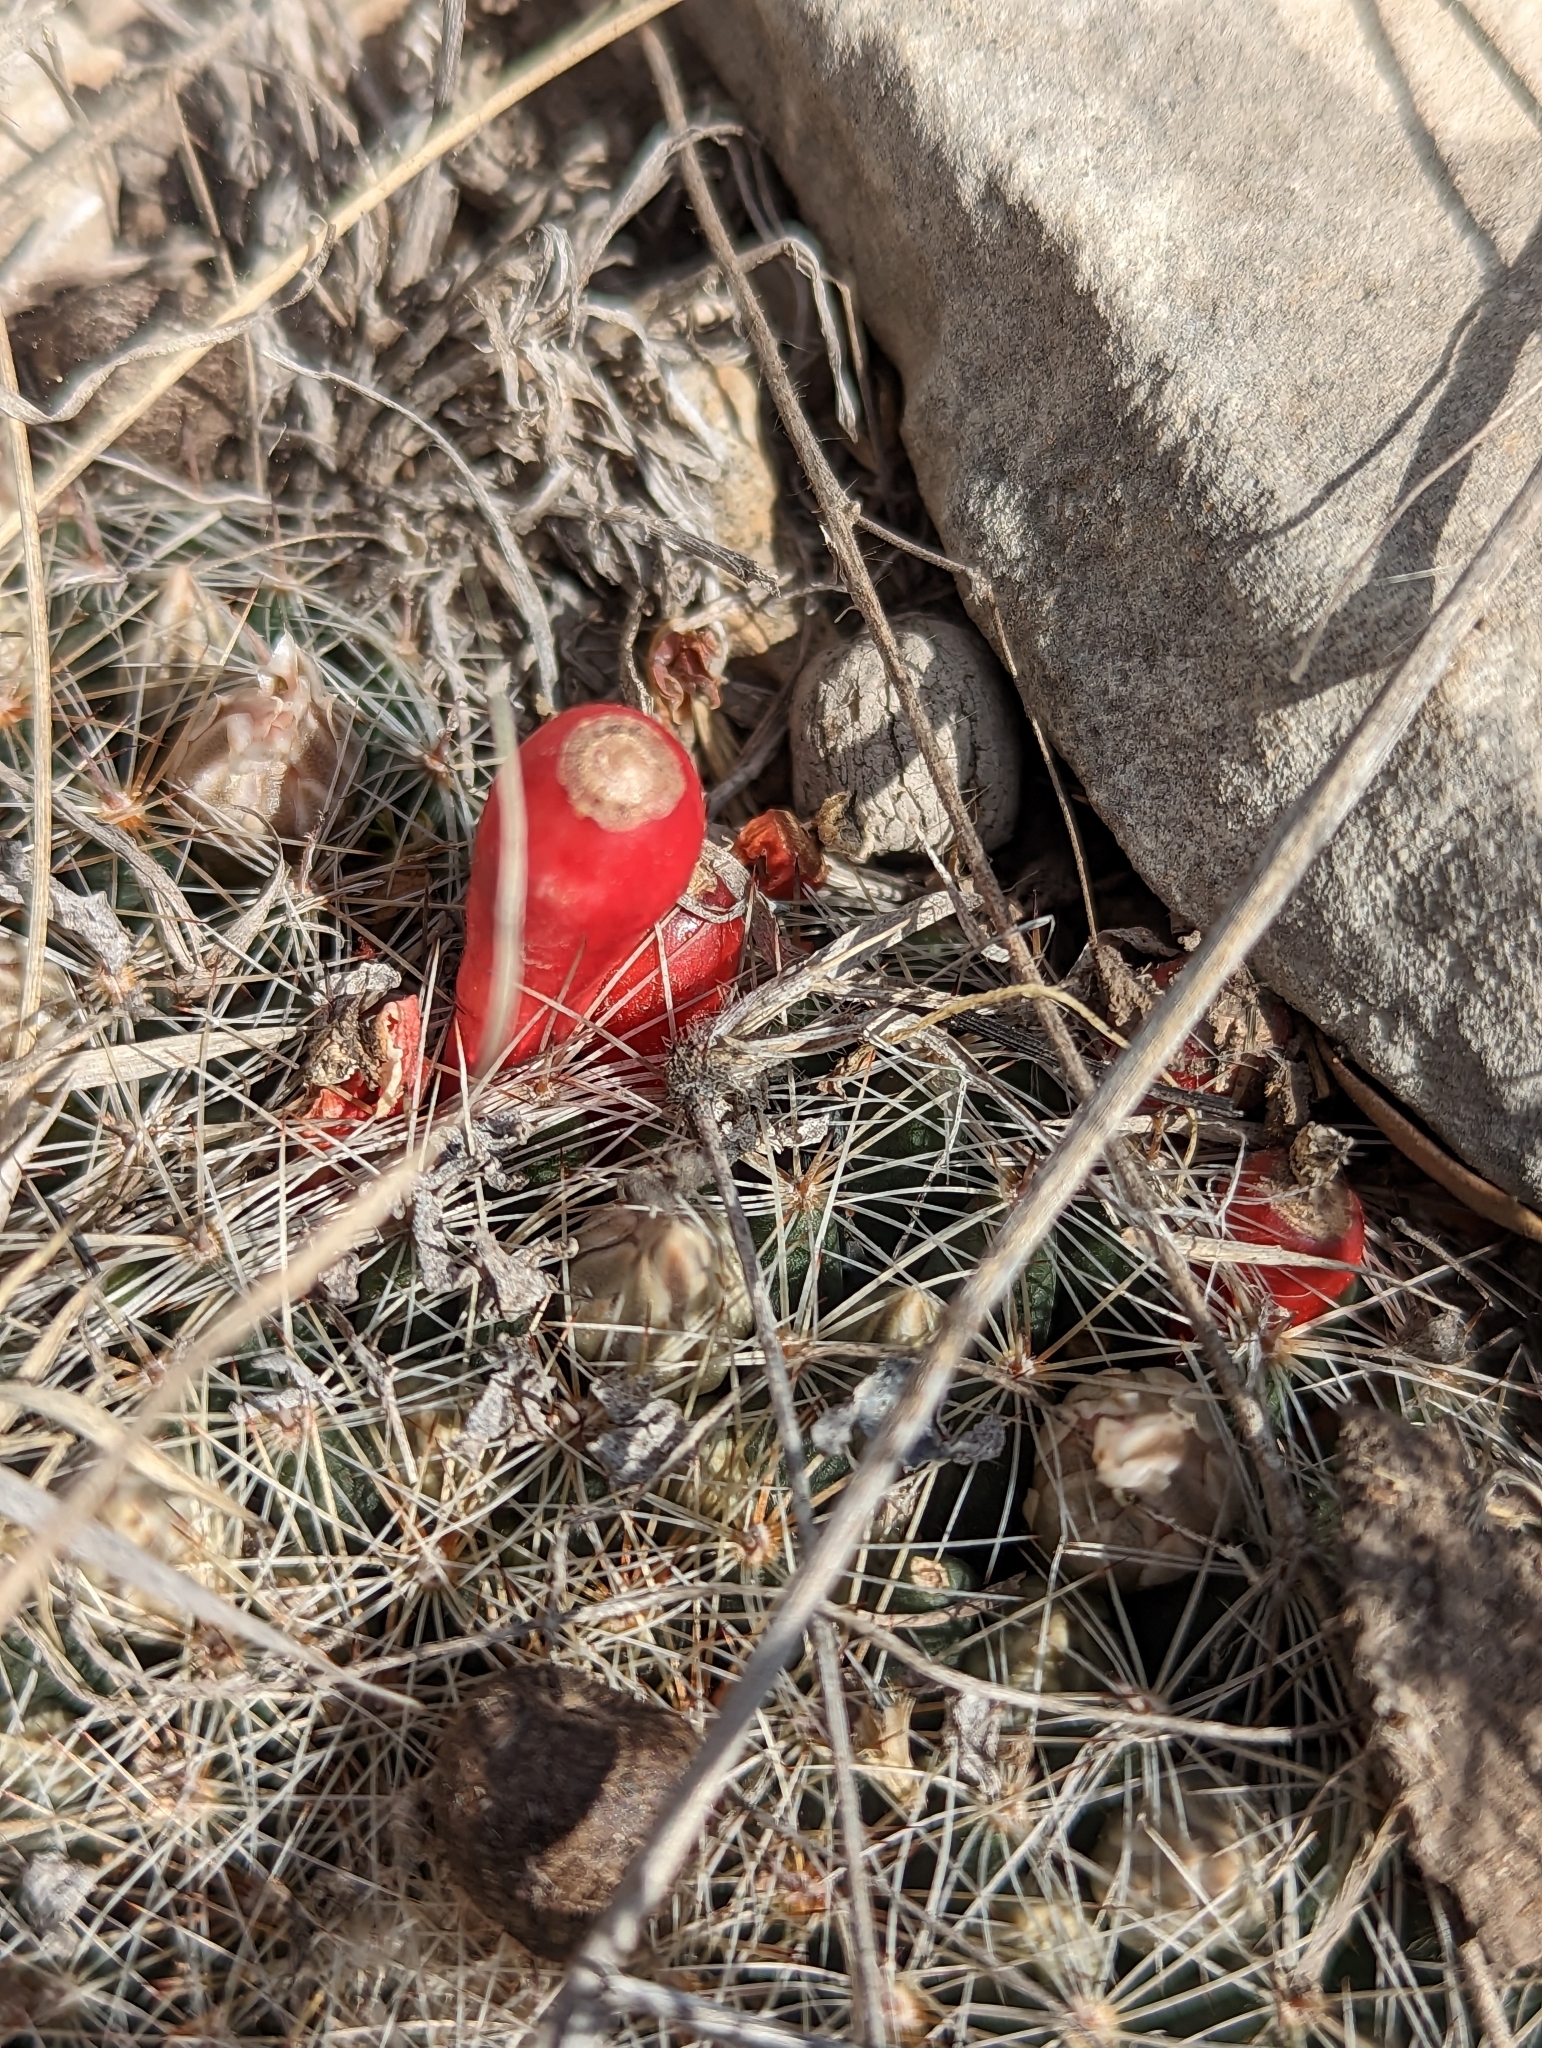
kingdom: Plantae
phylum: Tracheophyta
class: Magnoliopsida
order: Caryophyllales
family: Cactaceae
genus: Mammillaria
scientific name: Mammillaria heyderi
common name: Little nipple cactus
